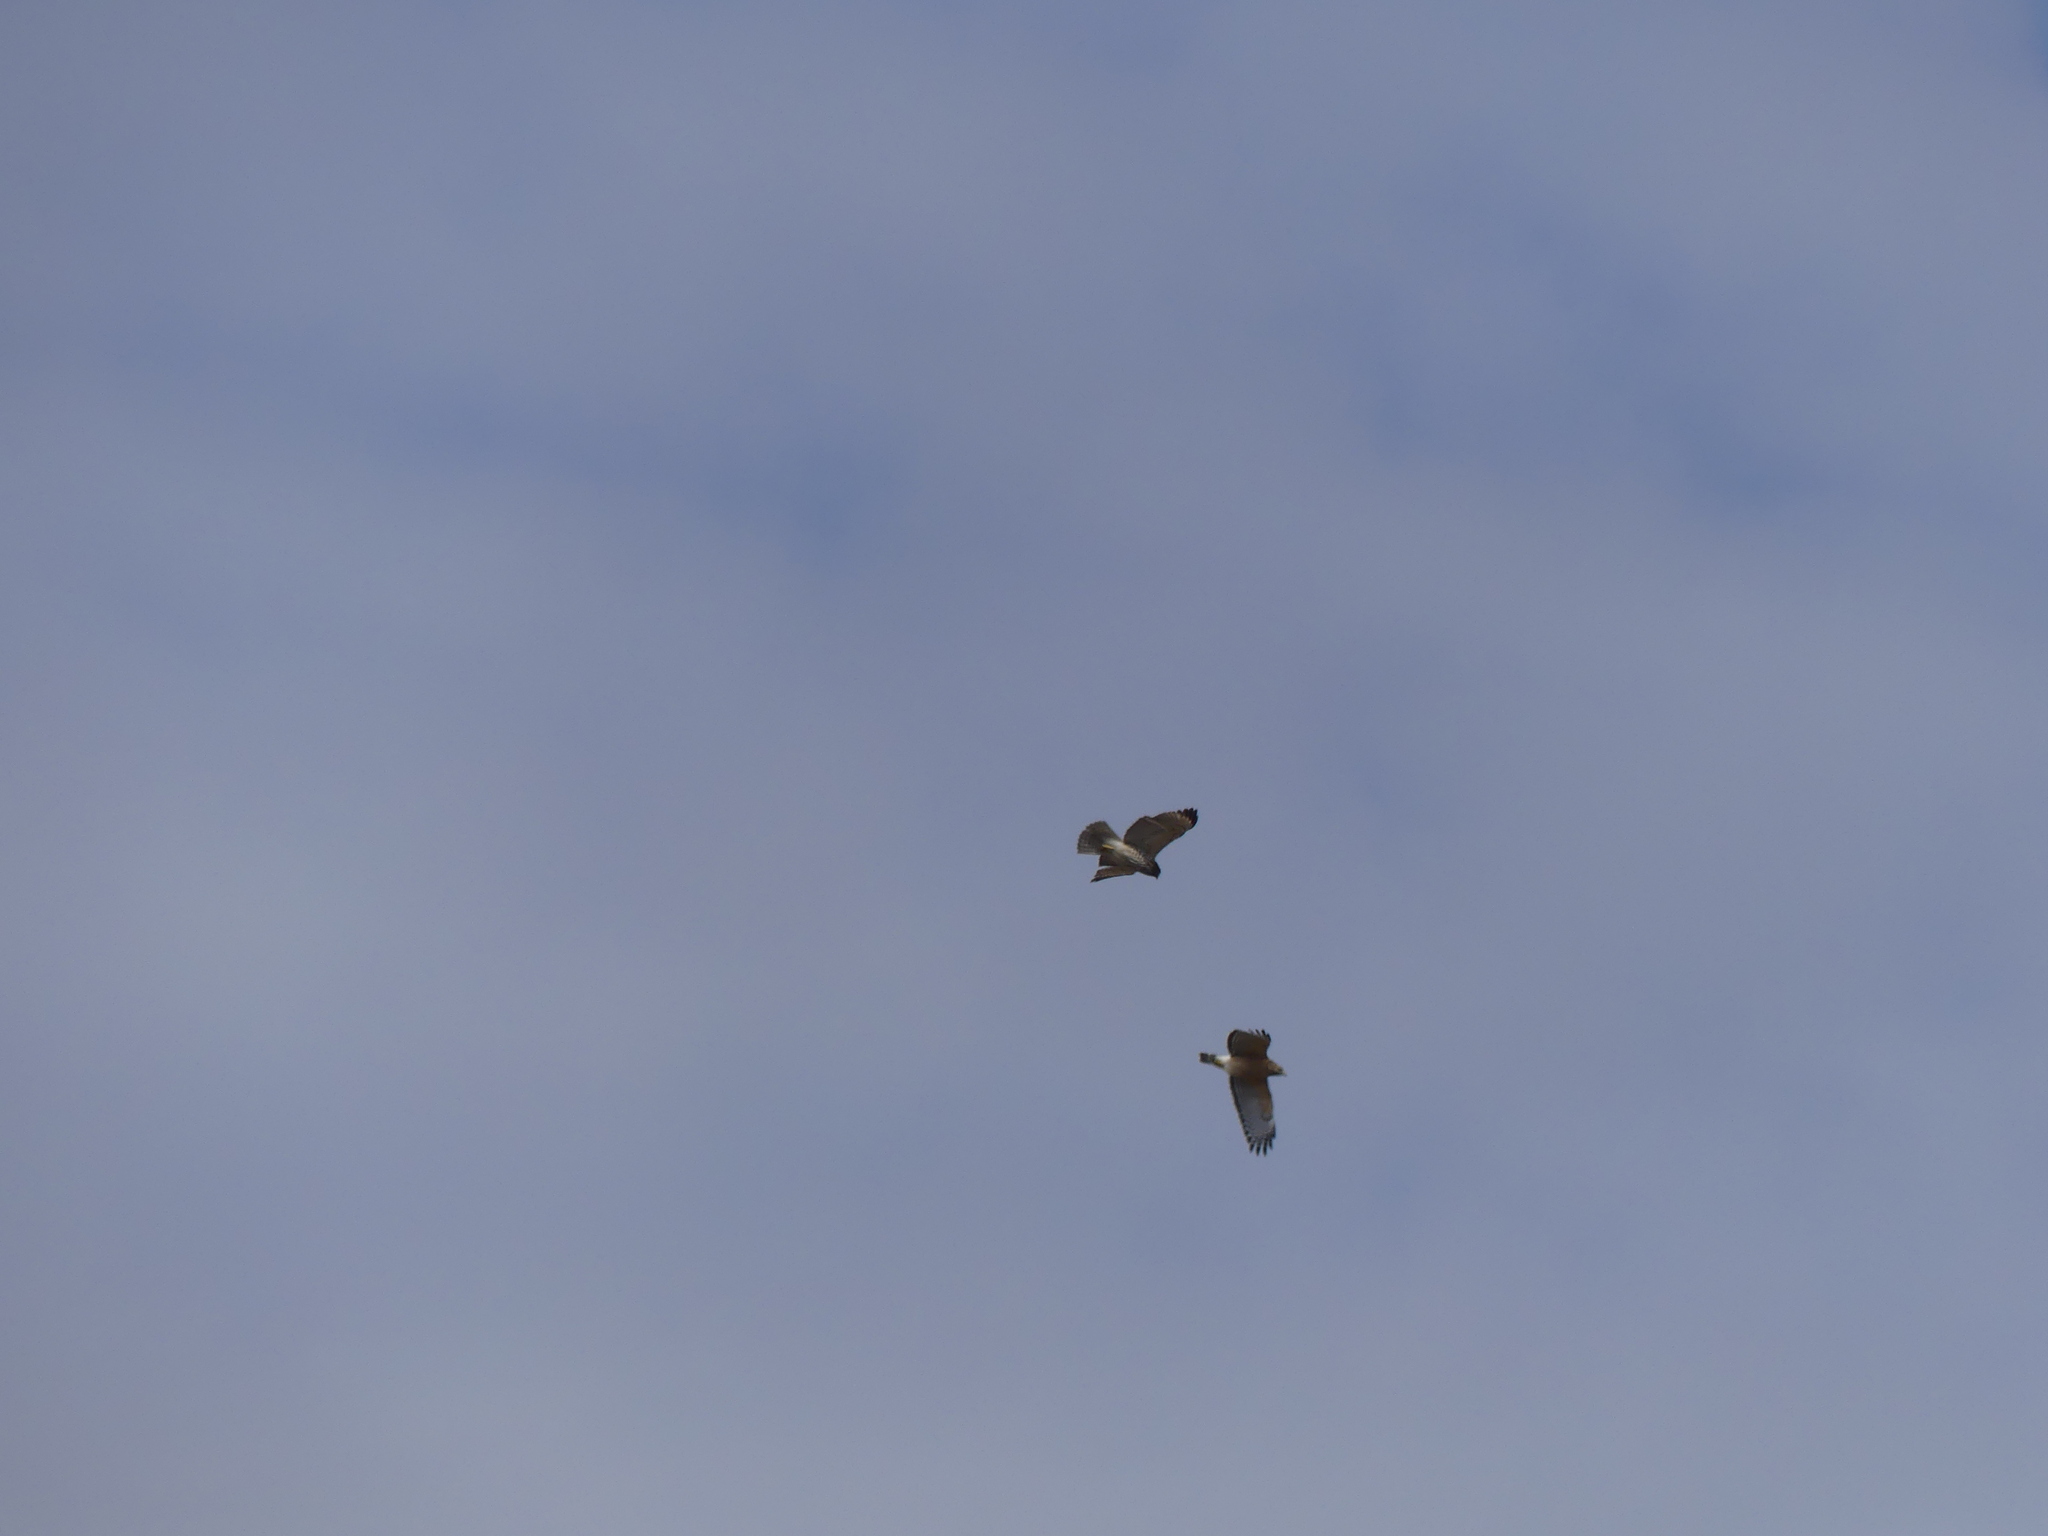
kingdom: Animalia
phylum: Chordata
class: Aves
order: Accipitriformes
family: Accipitridae
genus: Buteo
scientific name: Buteo lineatus
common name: Red-shouldered hawk
